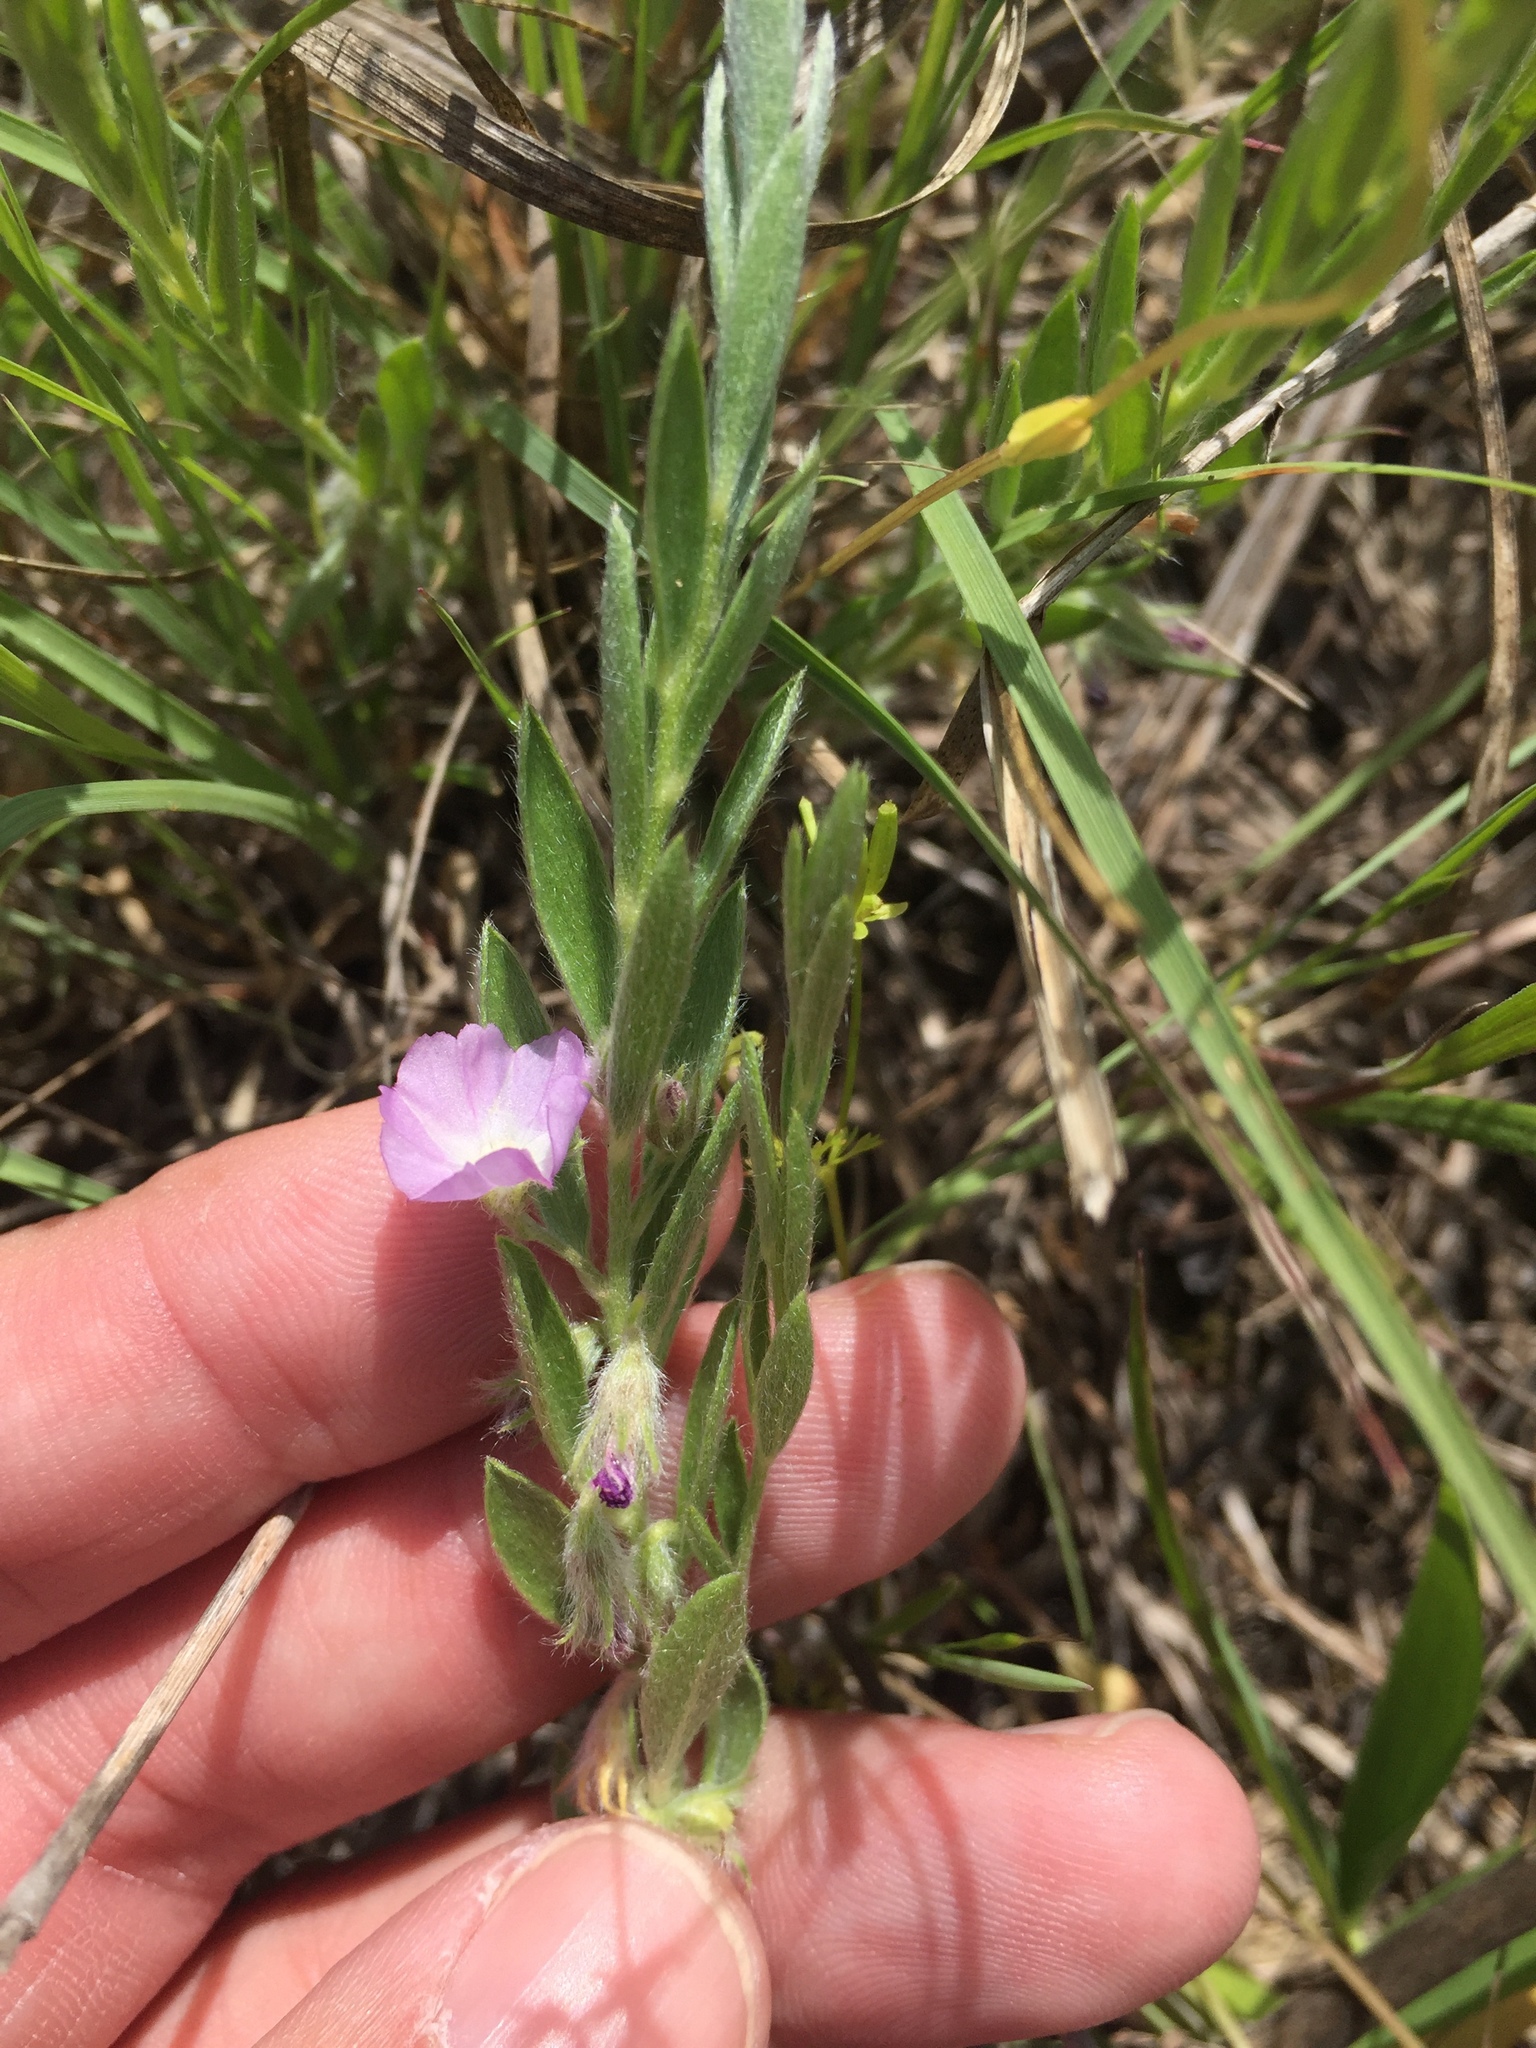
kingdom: Plantae
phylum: Tracheophyta
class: Magnoliopsida
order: Solanales
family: Convolvulaceae
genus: Evolvulus
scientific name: Evolvulus nuttallianus
